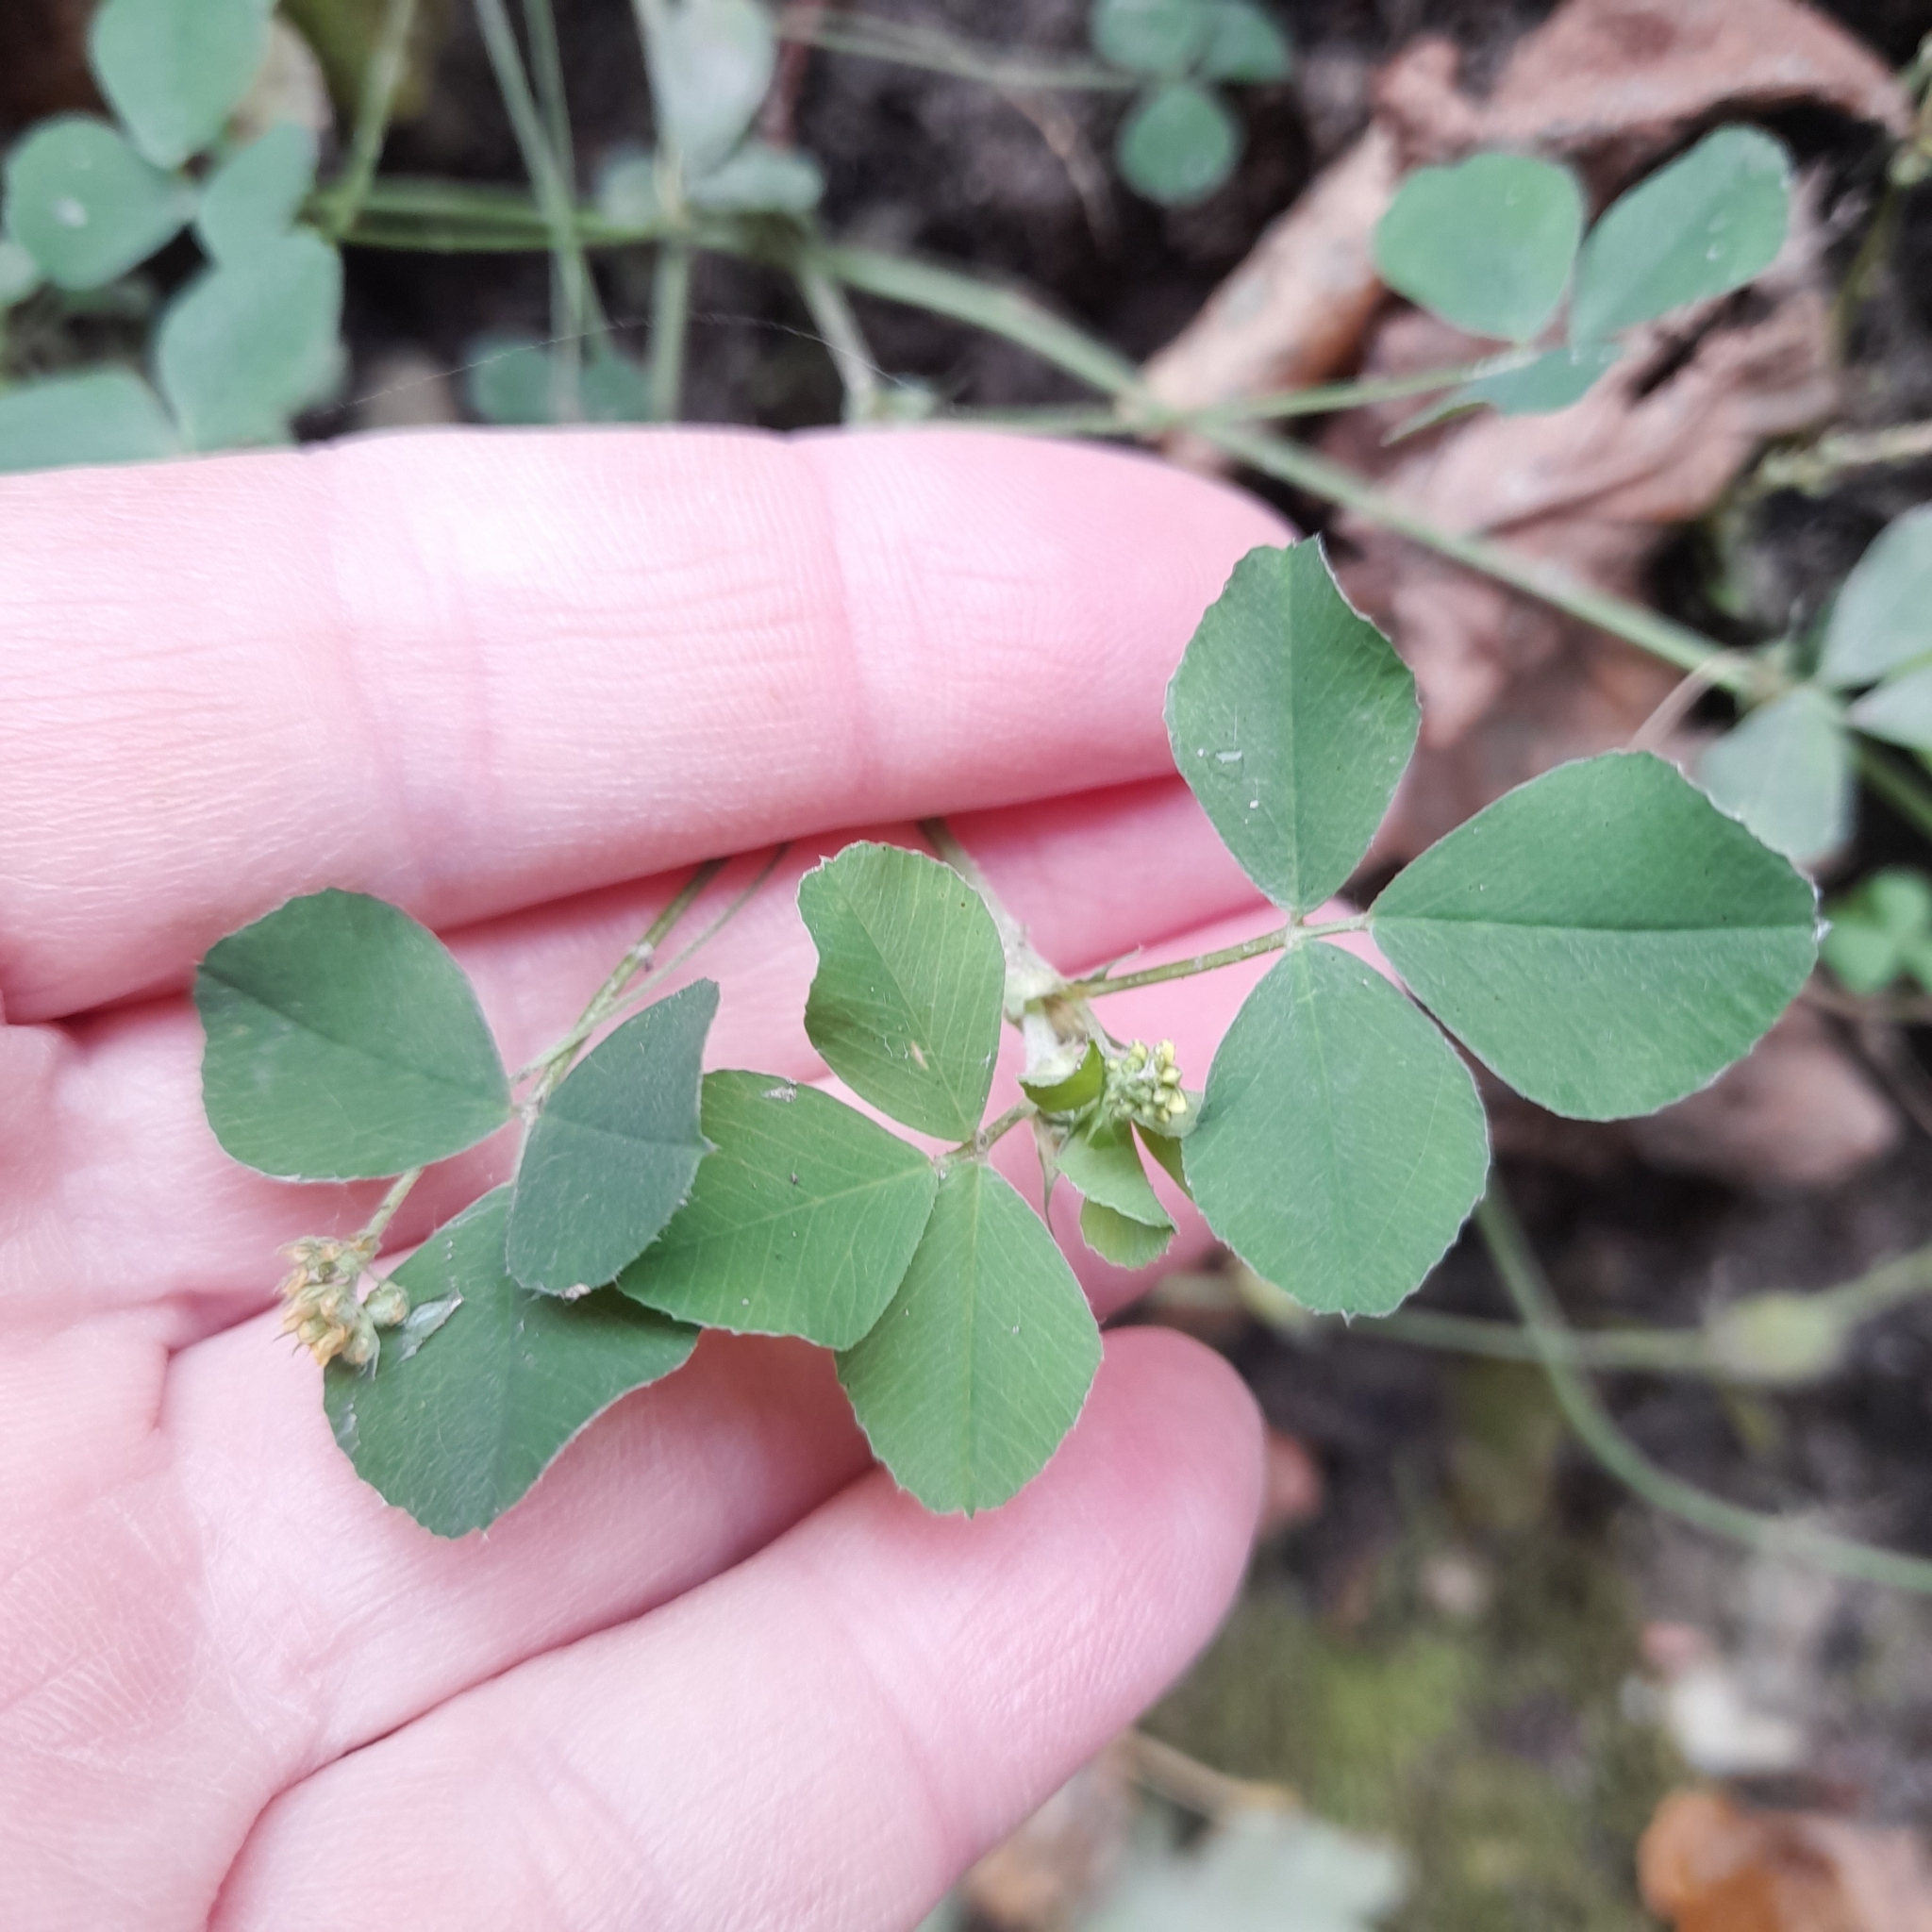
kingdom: Plantae
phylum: Tracheophyta
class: Magnoliopsida
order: Fabales
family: Fabaceae
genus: Medicago
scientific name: Medicago lupulina
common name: Black medick
